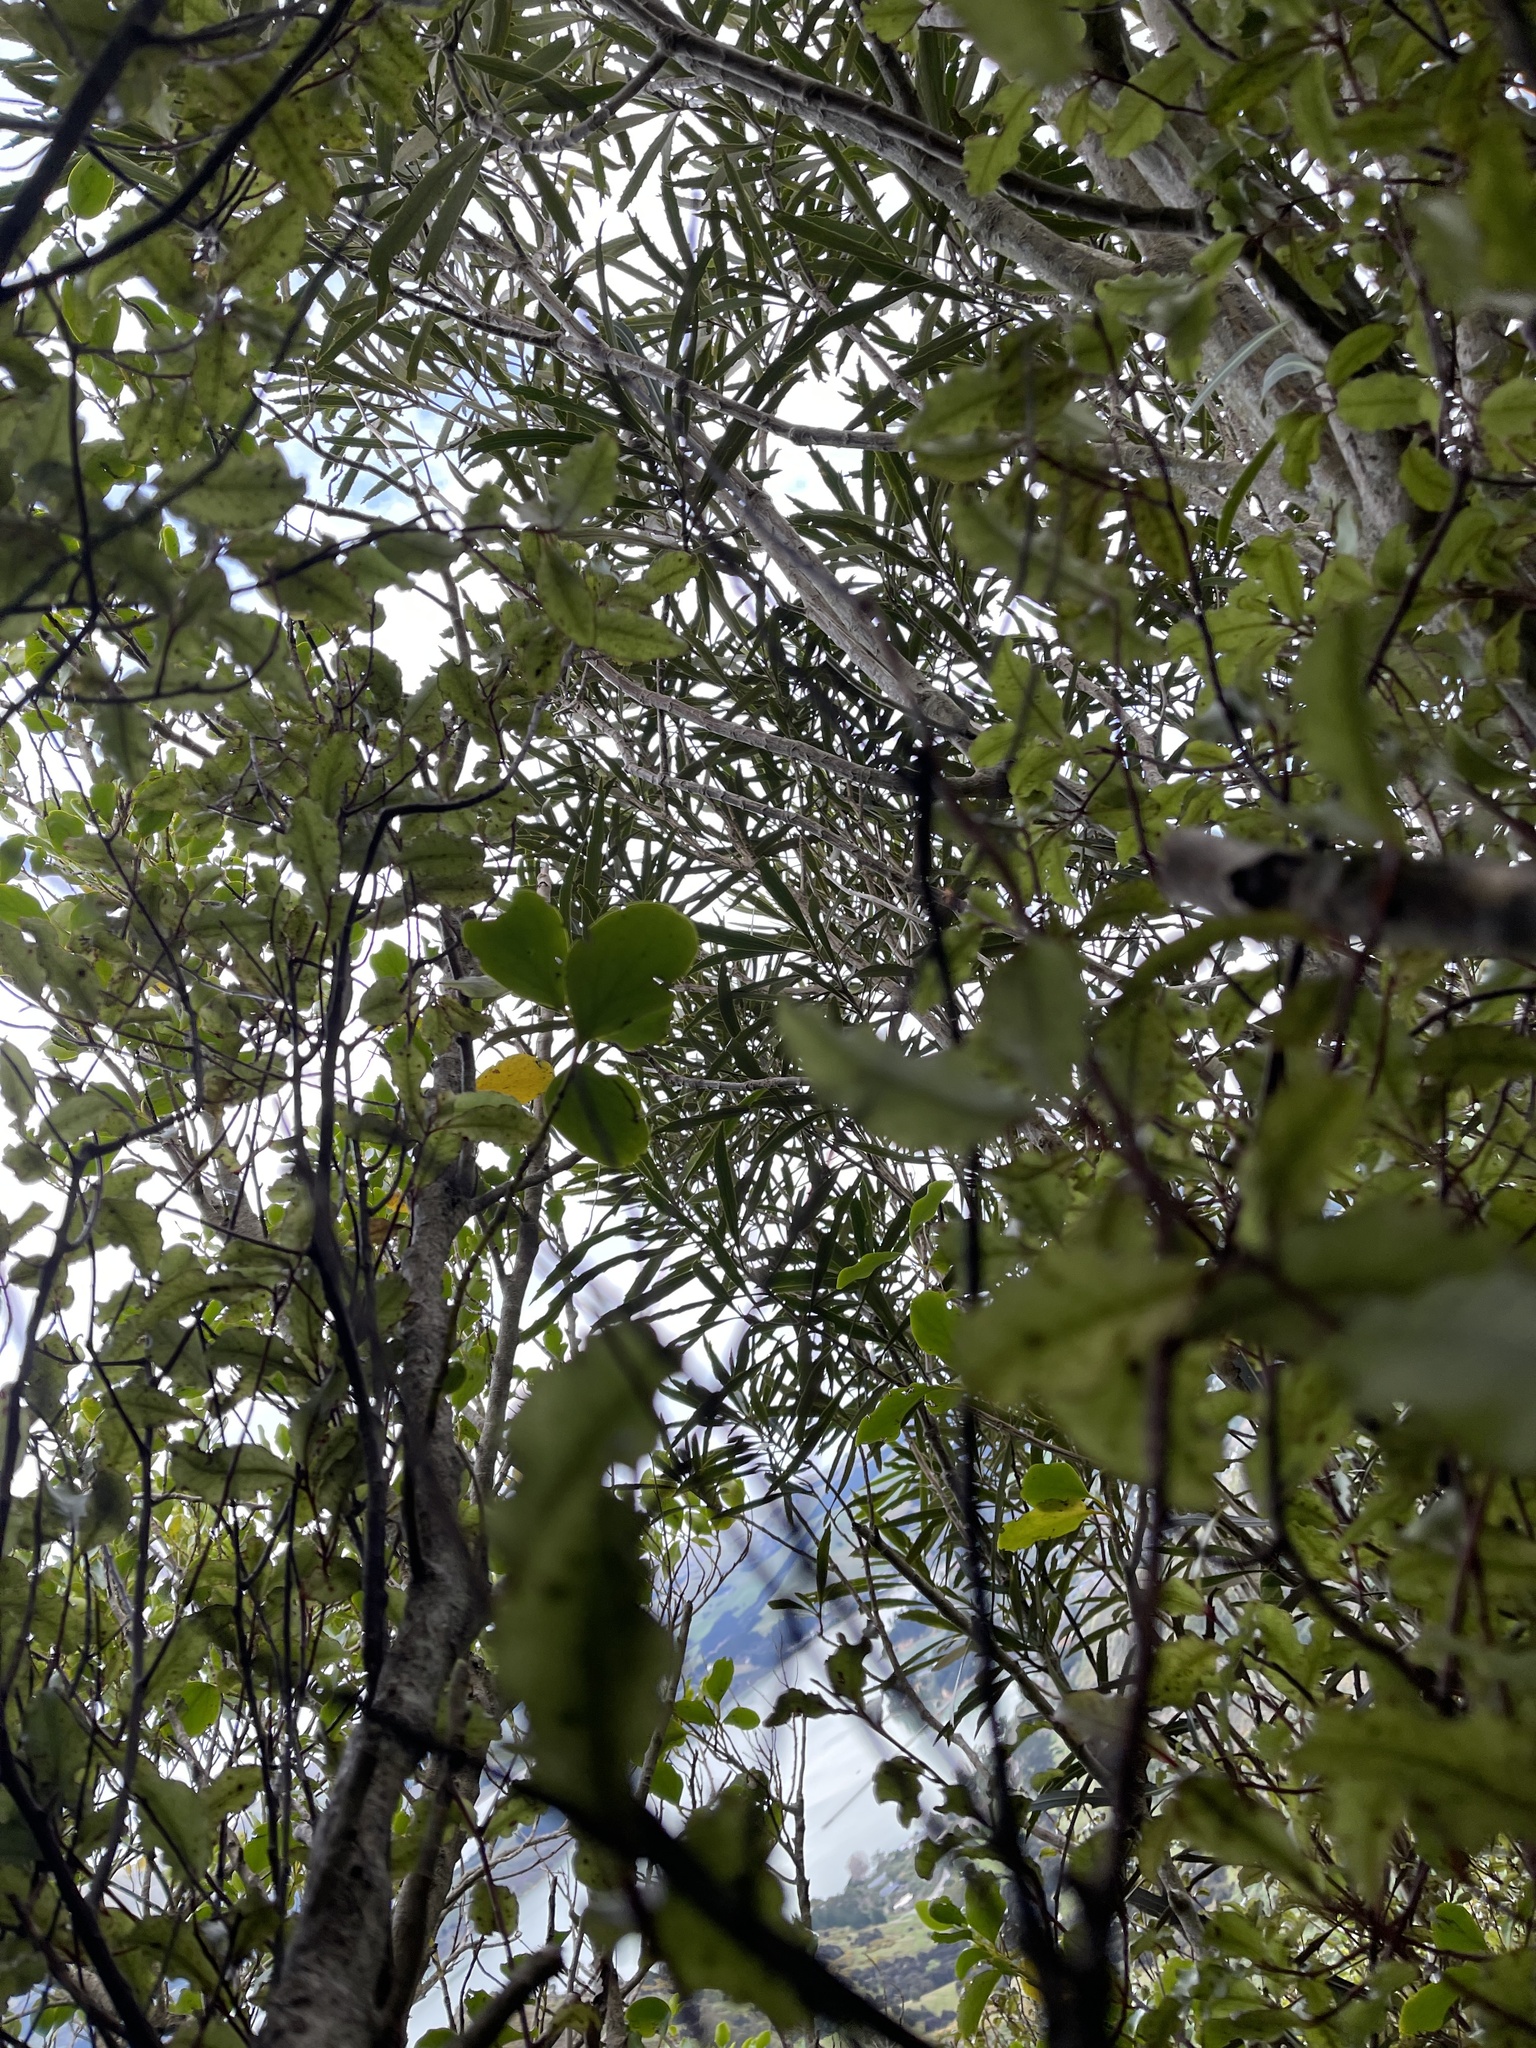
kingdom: Plantae
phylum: Tracheophyta
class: Magnoliopsida
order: Apiales
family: Araliaceae
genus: Pseudopanax
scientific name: Pseudopanax crassifolius
